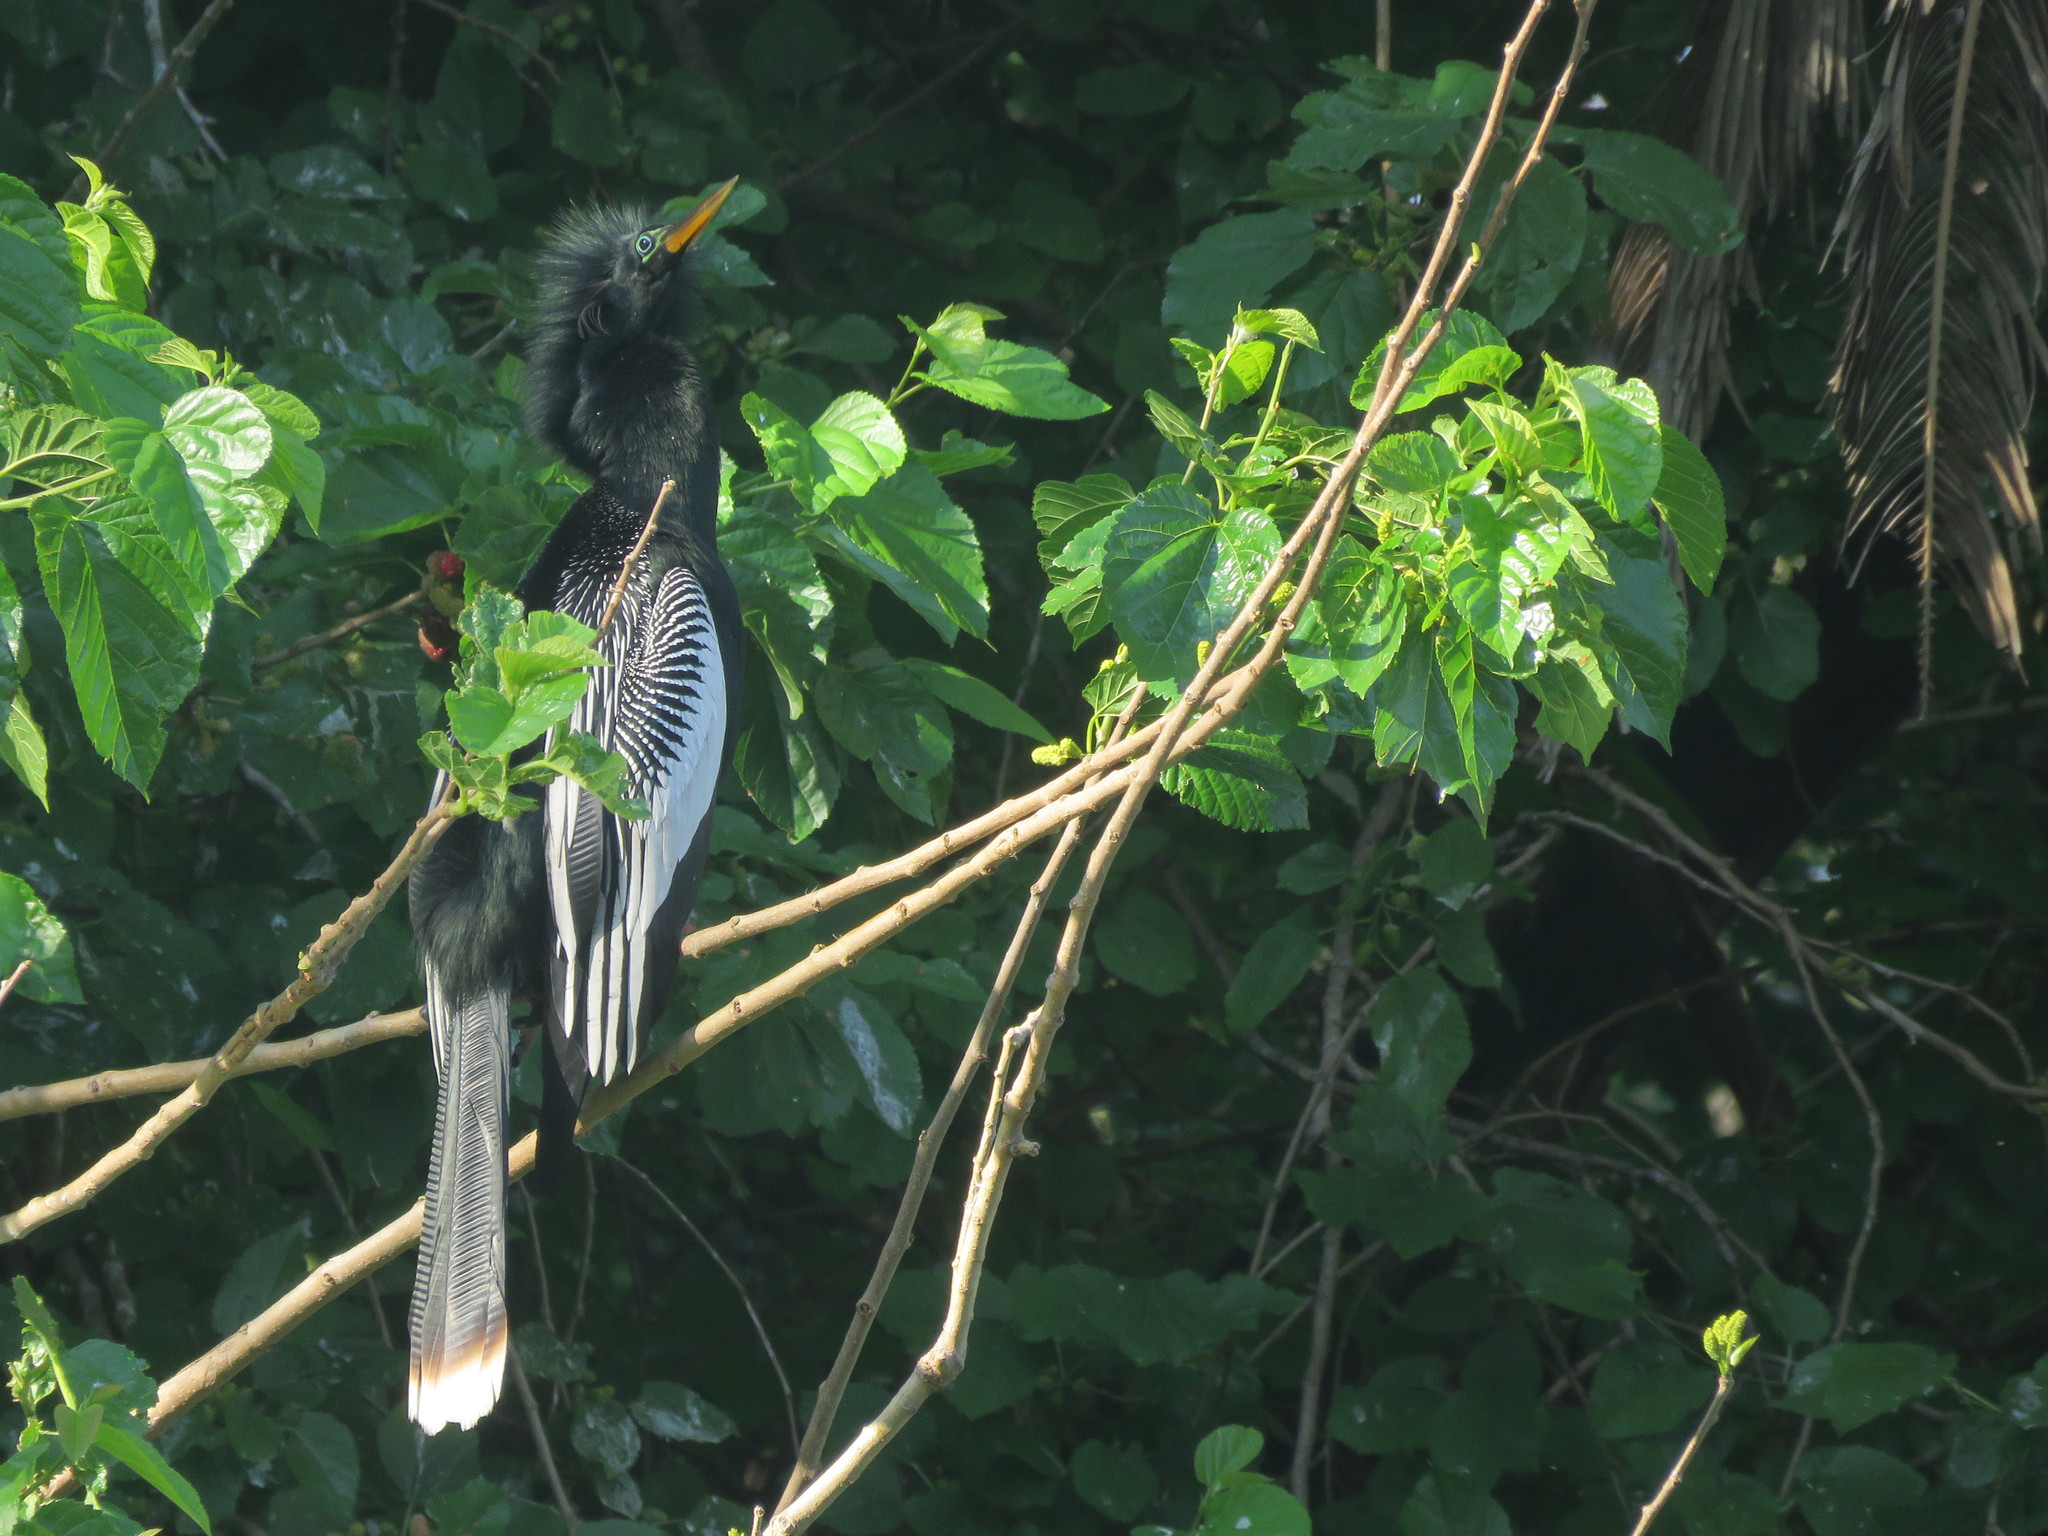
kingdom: Animalia
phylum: Chordata
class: Aves
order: Suliformes
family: Anhingidae
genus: Anhinga
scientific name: Anhinga anhinga
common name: Anhinga
